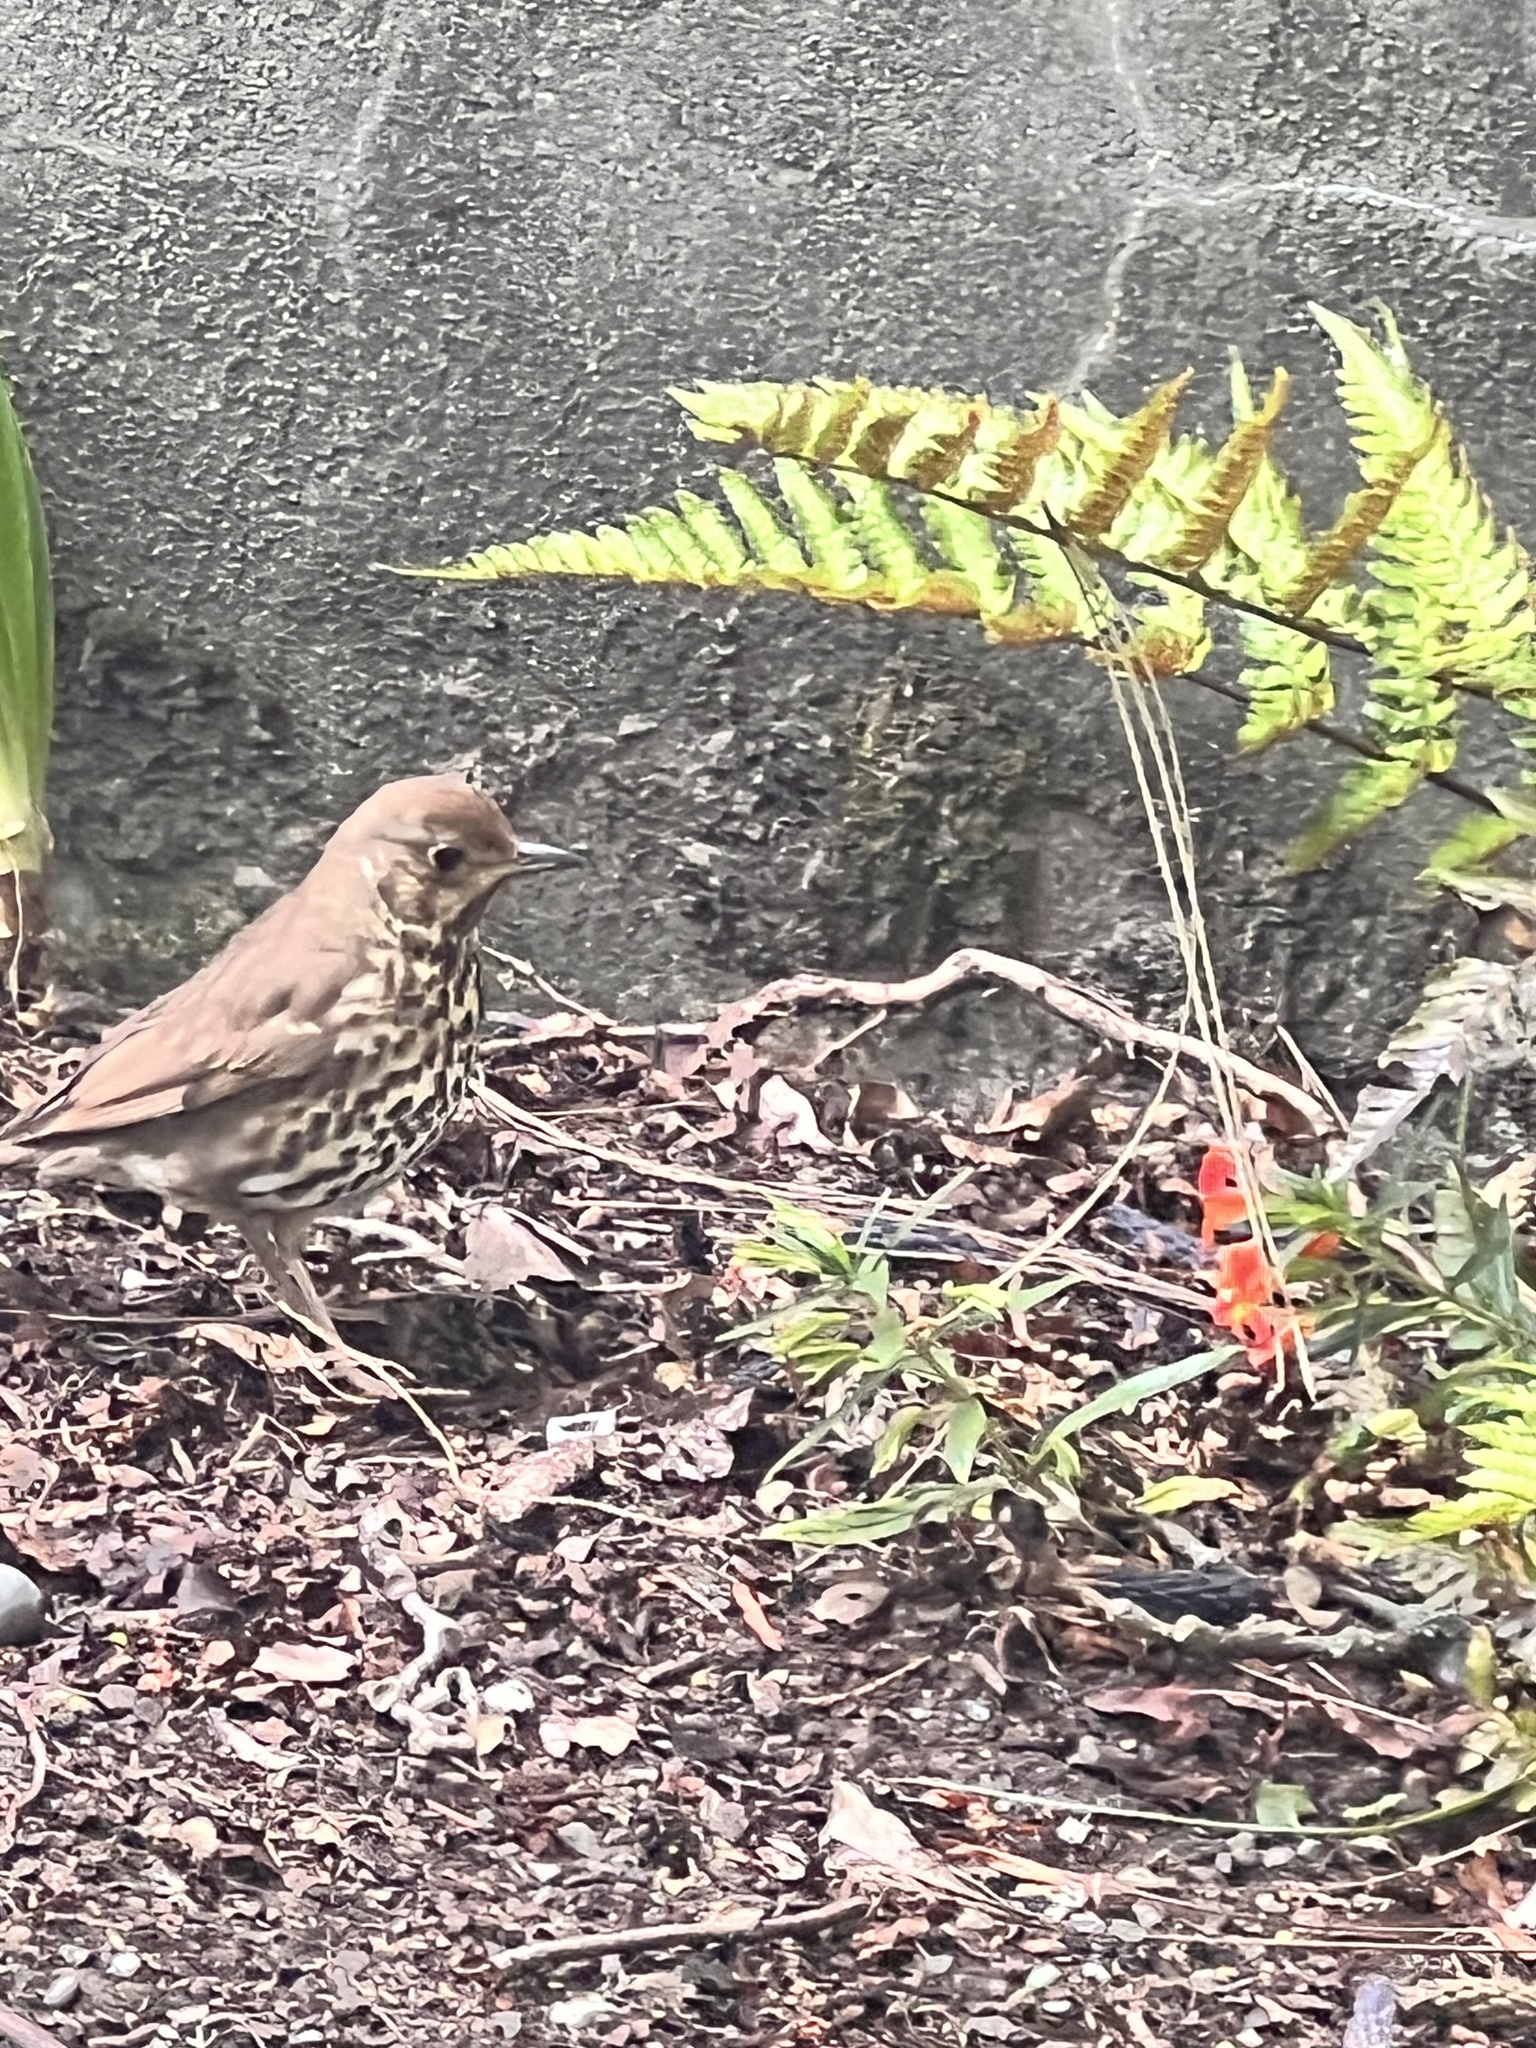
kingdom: Animalia
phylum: Chordata
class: Aves
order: Passeriformes
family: Turdidae
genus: Turdus
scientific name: Turdus philomelos
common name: Song thrush
